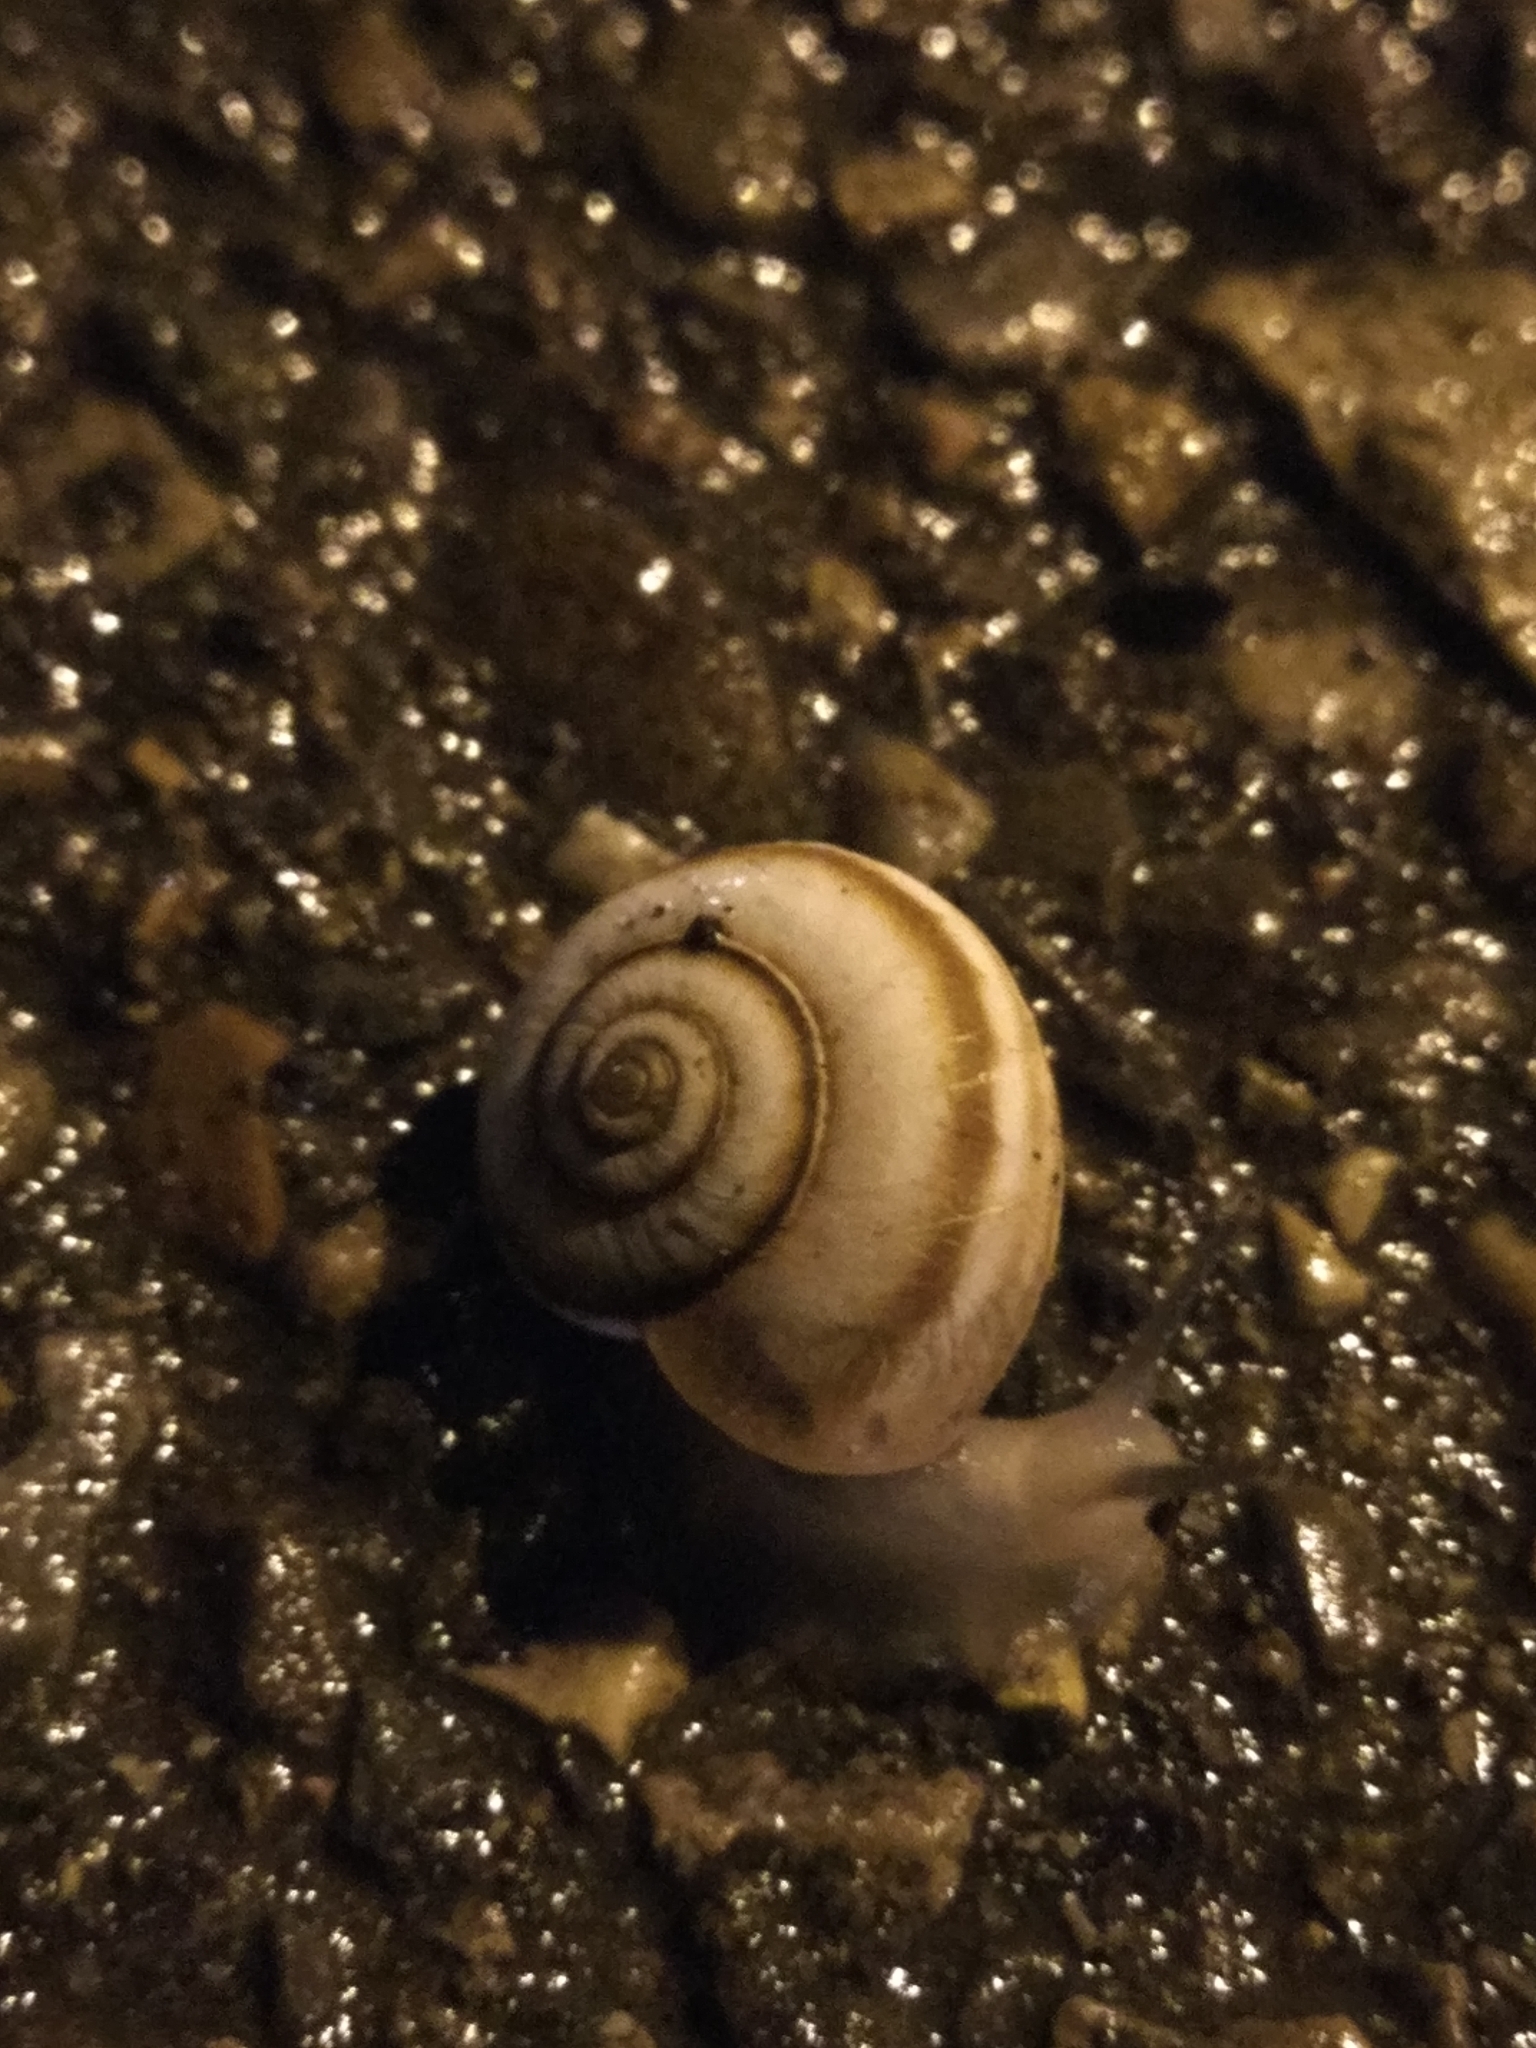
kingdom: Animalia
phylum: Mollusca
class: Gastropoda
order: Stylommatophora
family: Geomitridae
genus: Xeropicta
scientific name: Xeropicta derbentina
